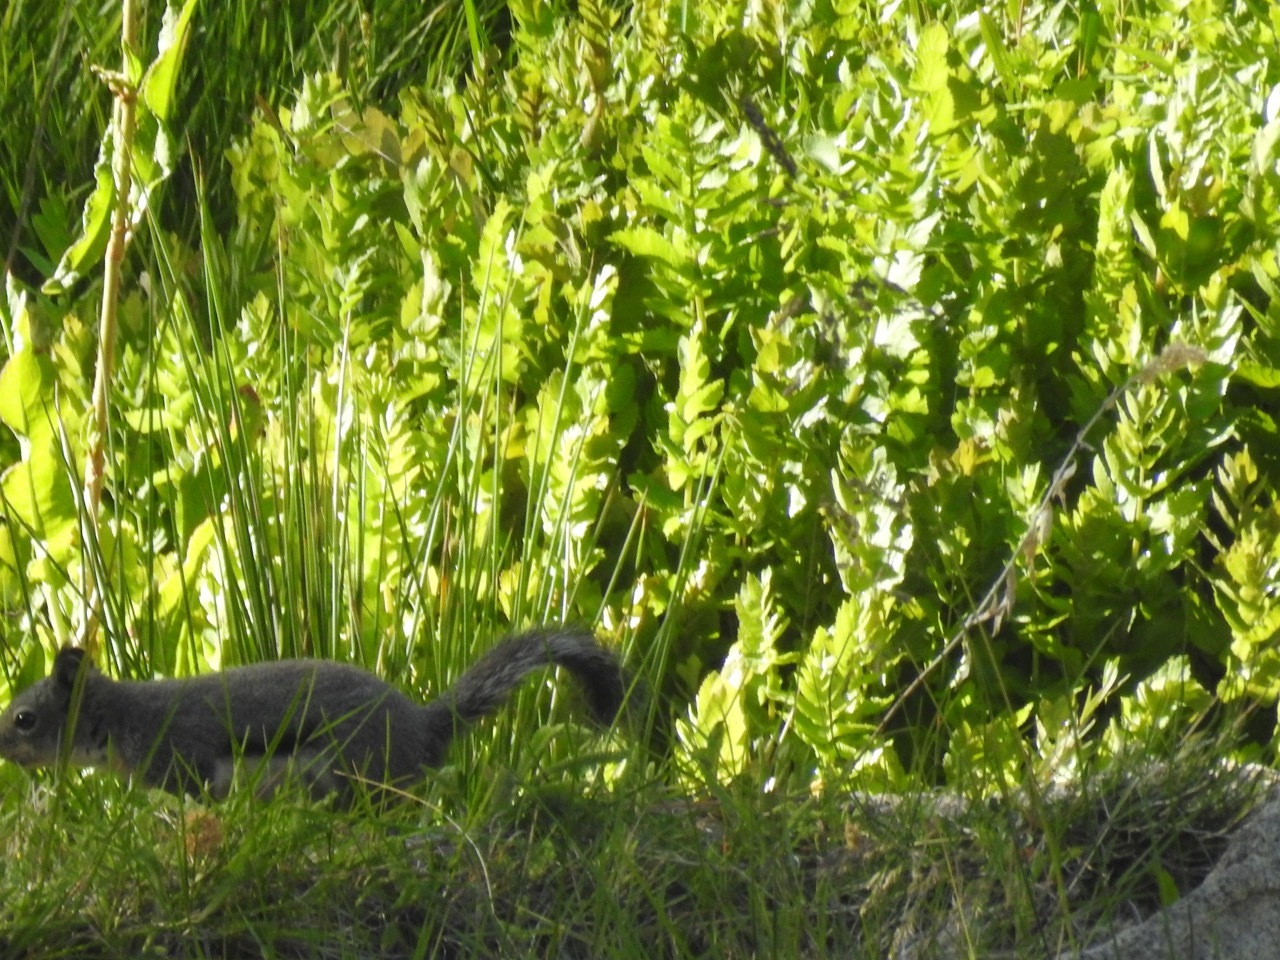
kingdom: Animalia
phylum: Chordata
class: Mammalia
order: Rodentia
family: Sciuridae
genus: Tamiasciurus
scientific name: Tamiasciurus douglasii
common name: Douglas's squirrel
